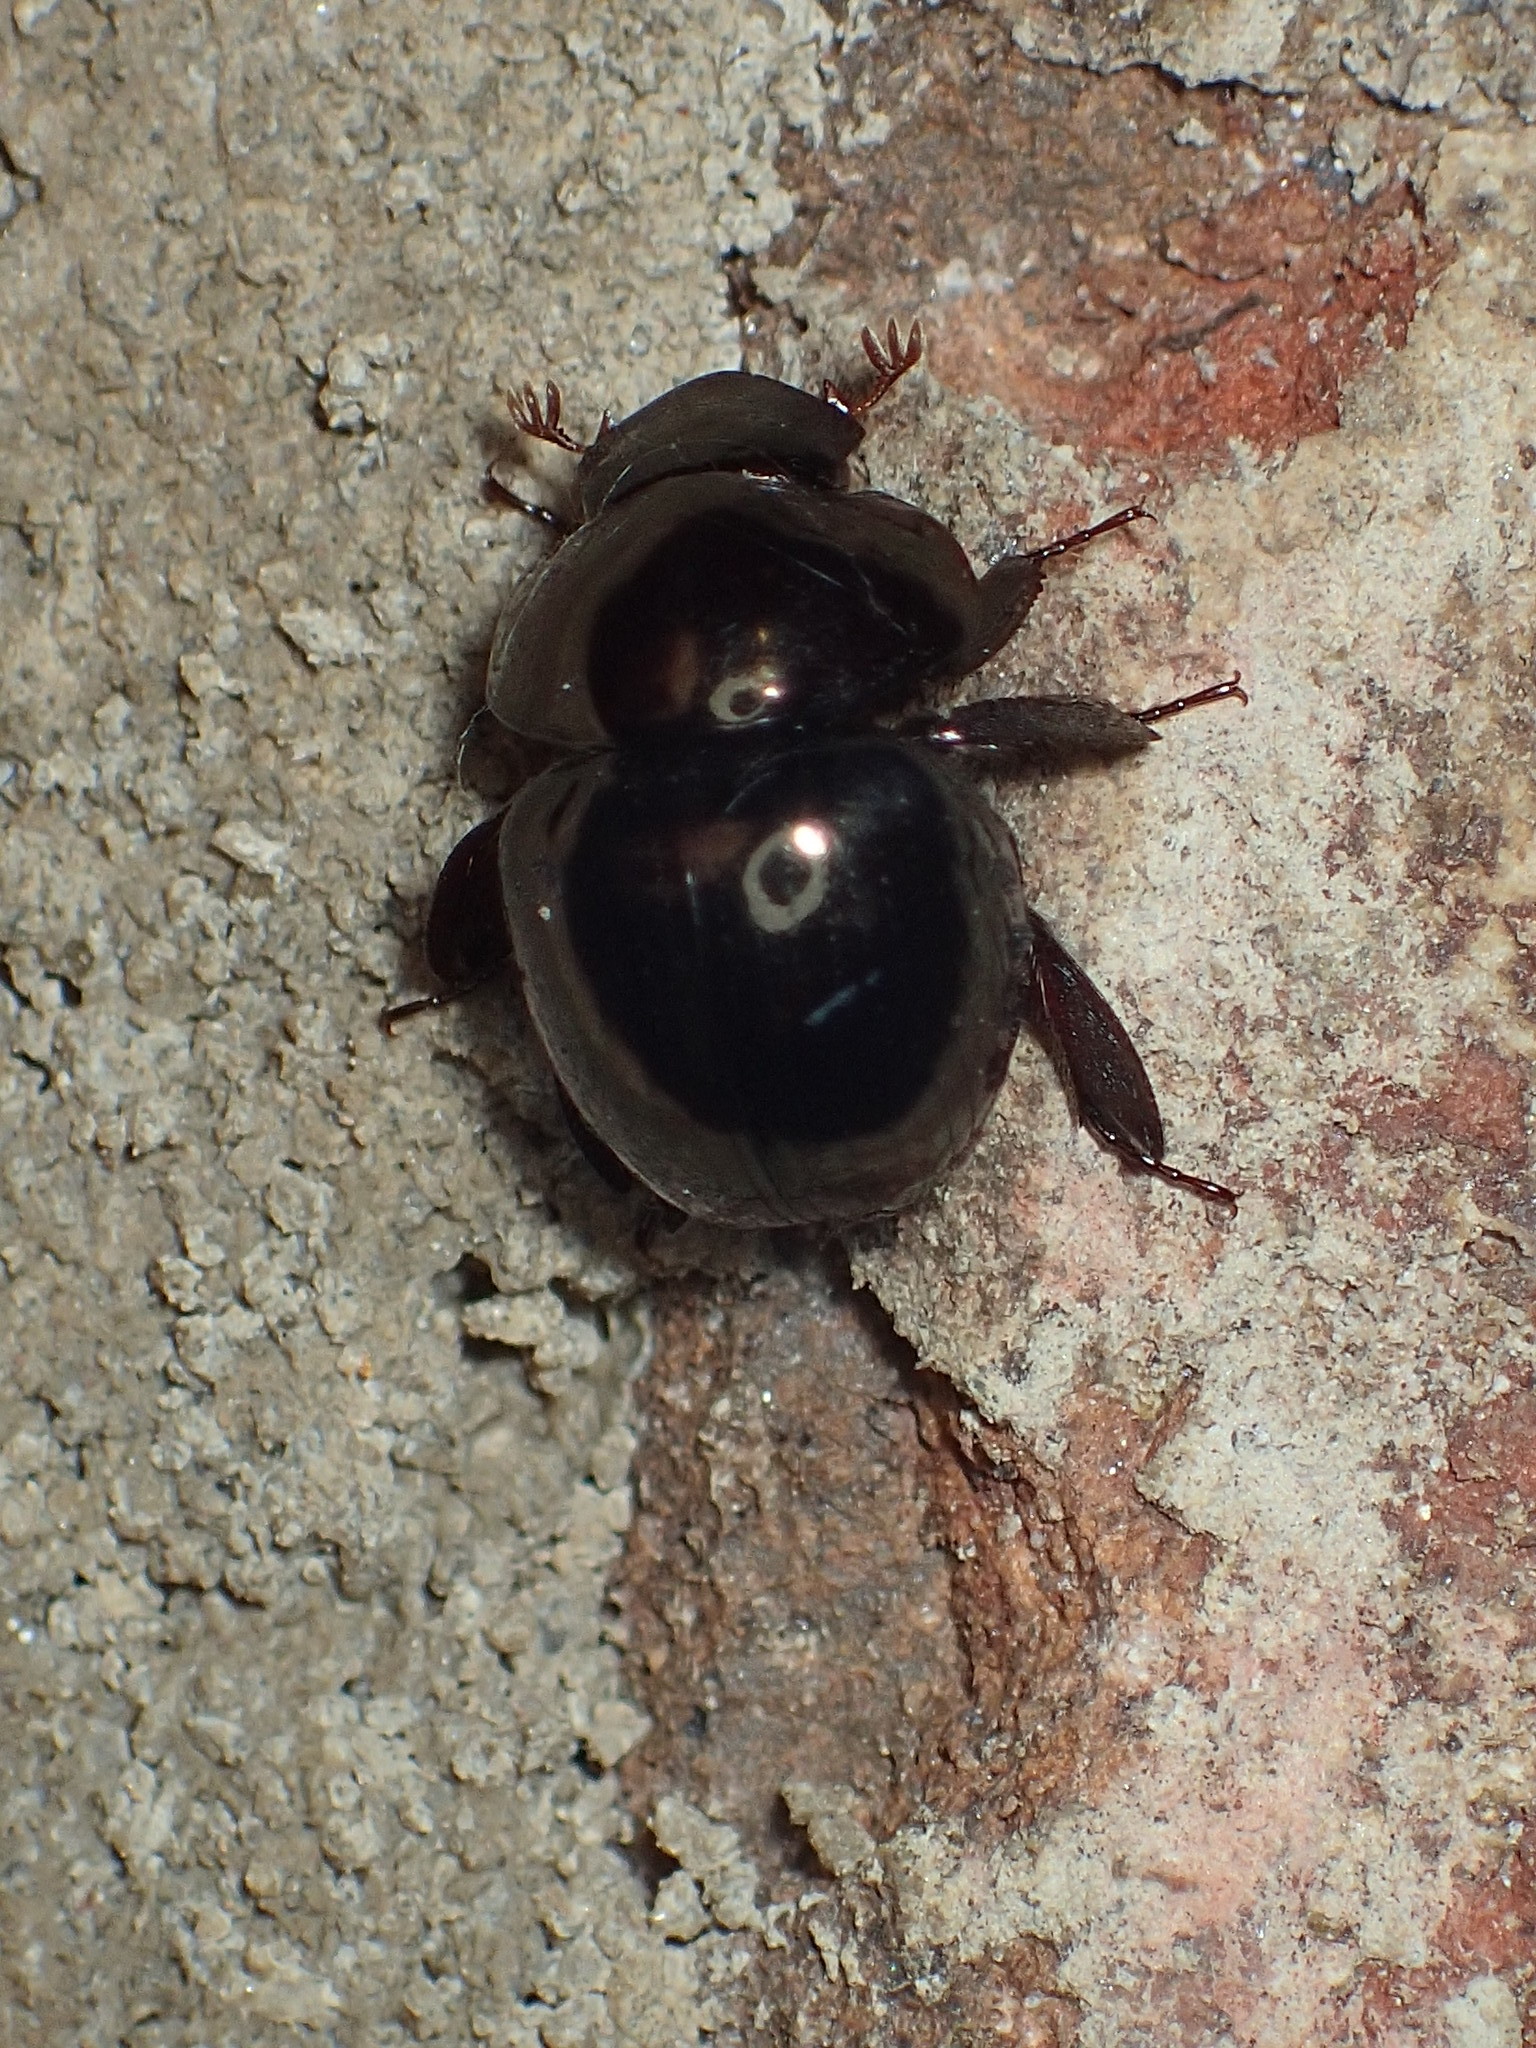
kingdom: Animalia
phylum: Arthropoda
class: Insecta
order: Coleoptera
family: Hybosoridae
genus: Ceratocanthus
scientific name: Ceratocanthus aeneus
